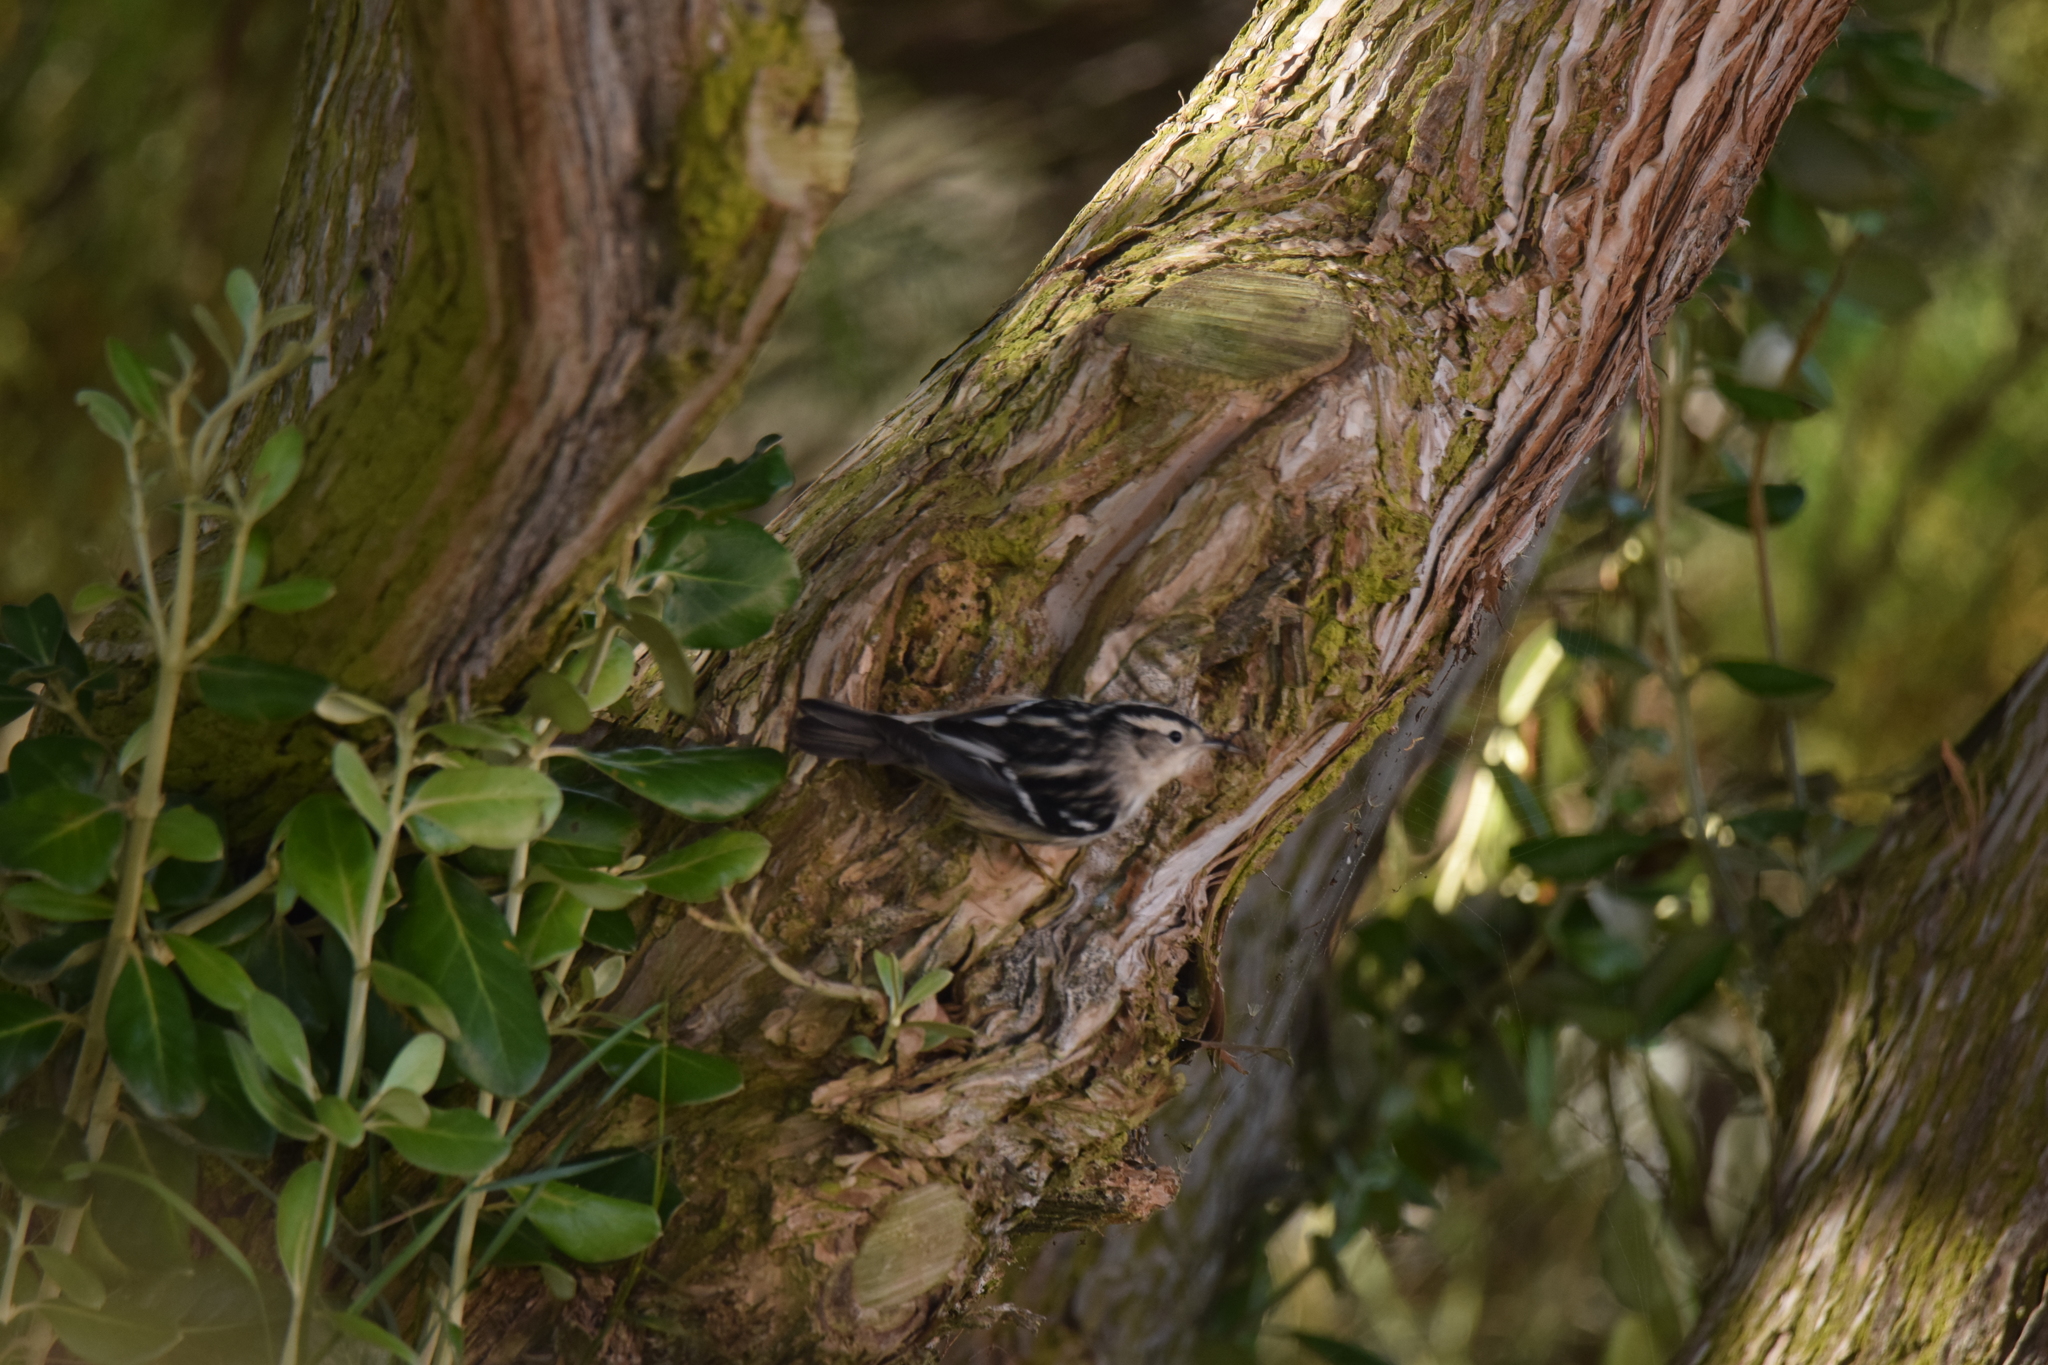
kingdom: Animalia
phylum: Chordata
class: Aves
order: Passeriformes
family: Parulidae
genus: Mniotilta
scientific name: Mniotilta varia
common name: Black-and-white warbler
